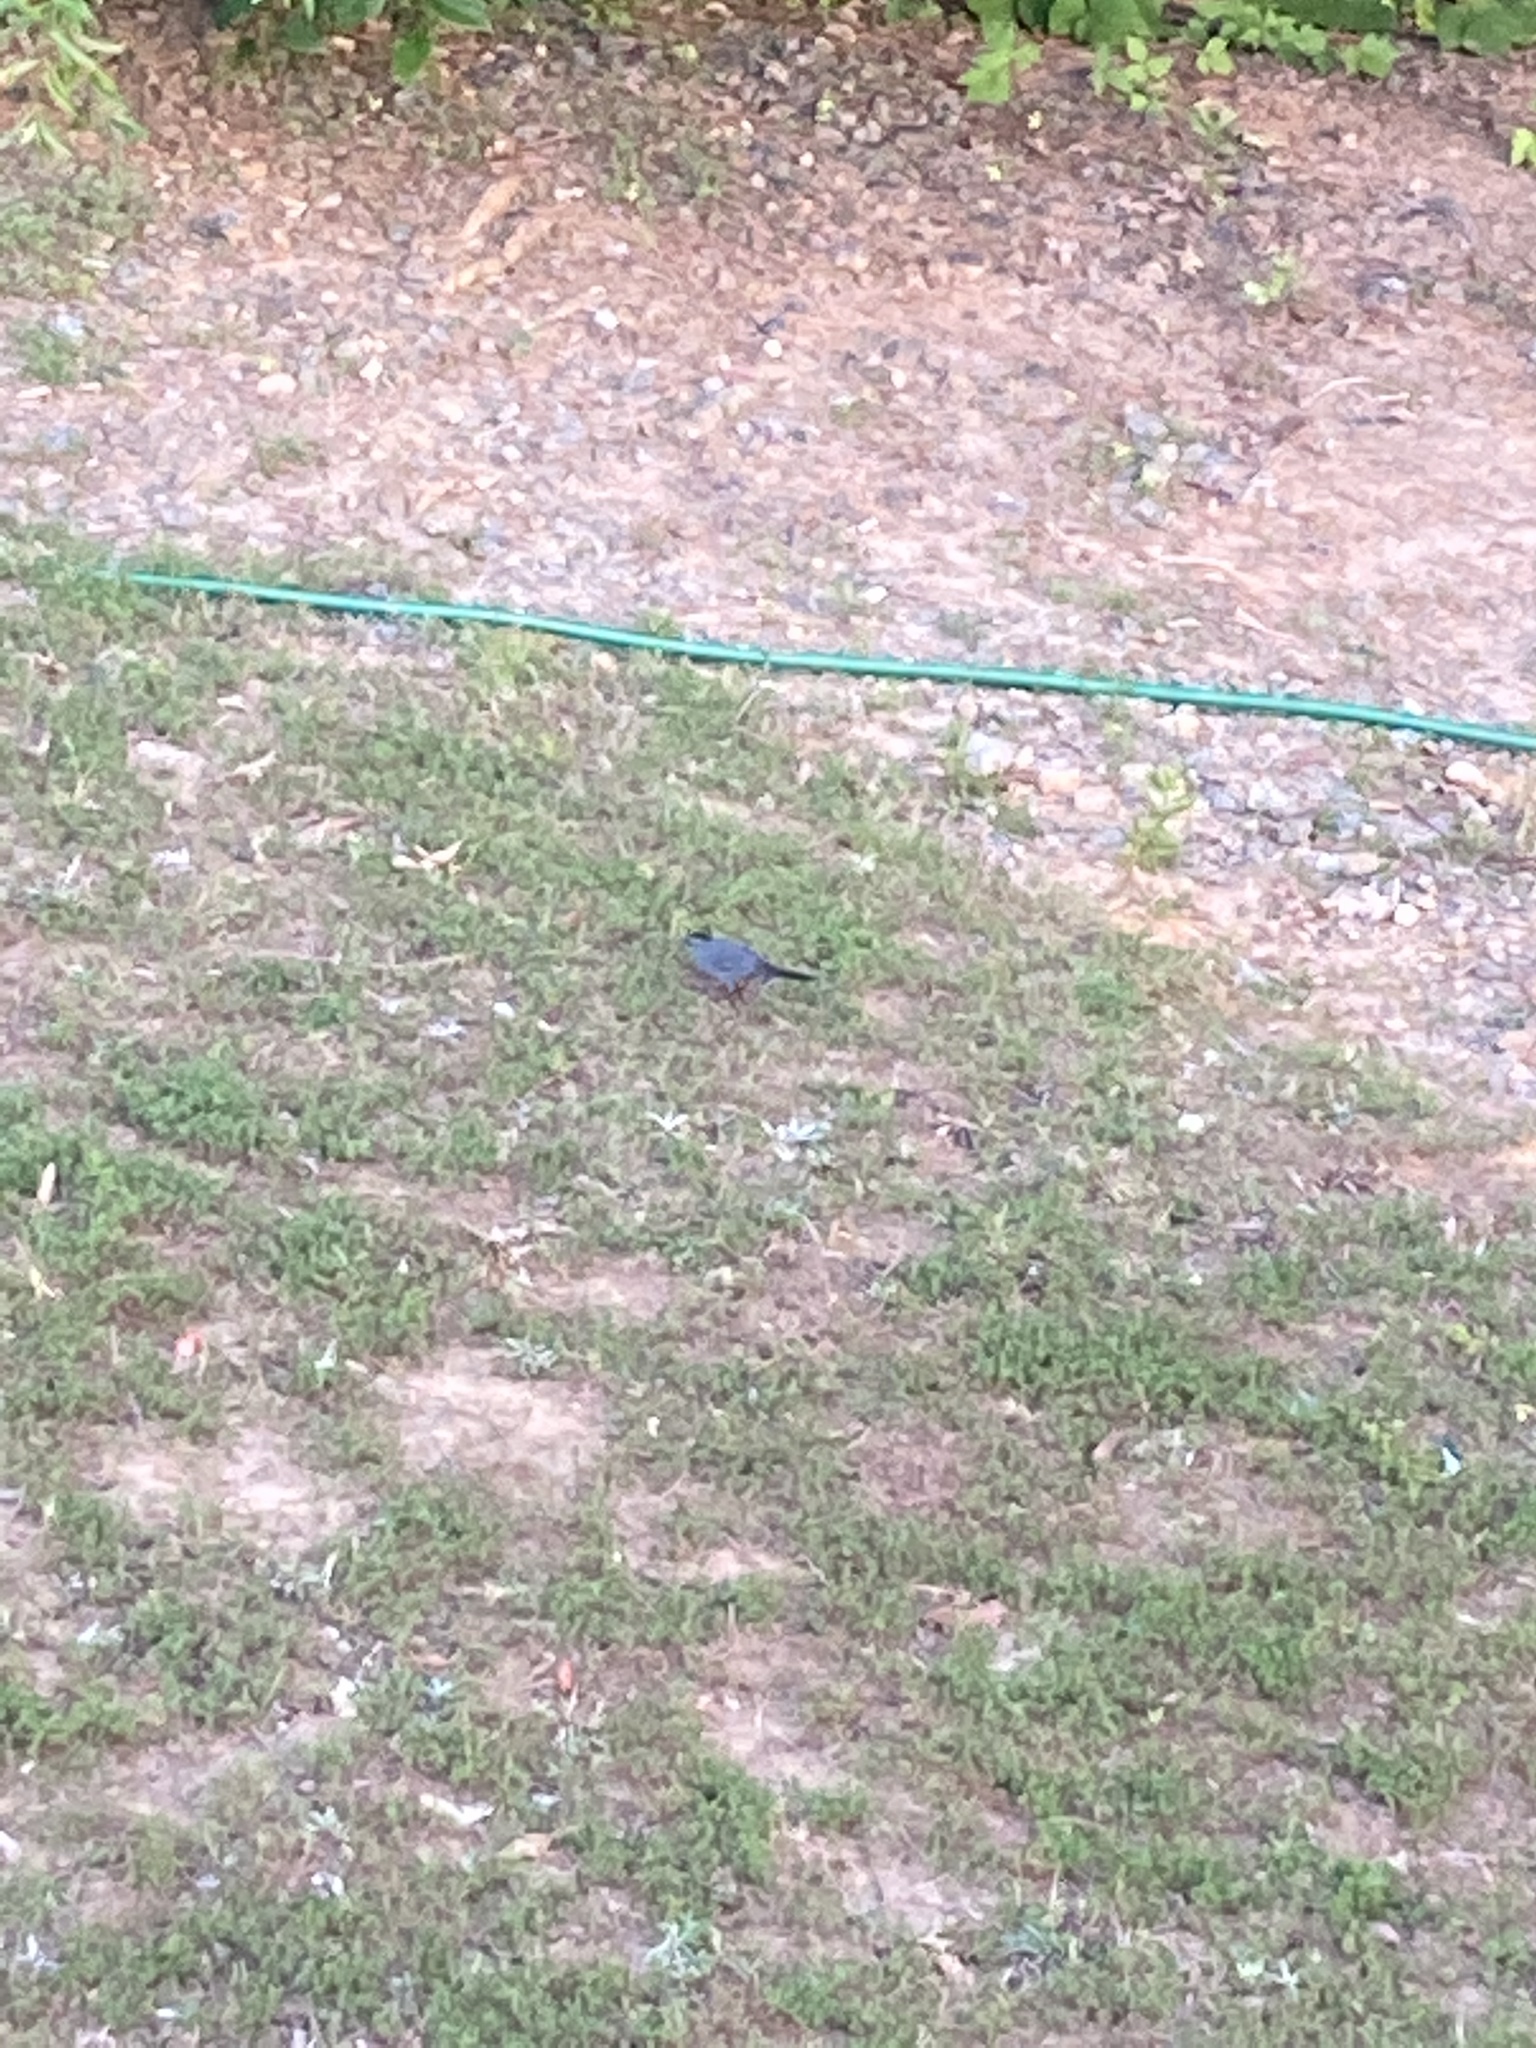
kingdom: Animalia
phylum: Chordata
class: Aves
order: Passeriformes
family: Mimidae
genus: Dumetella
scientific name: Dumetella carolinensis
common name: Gray catbird
